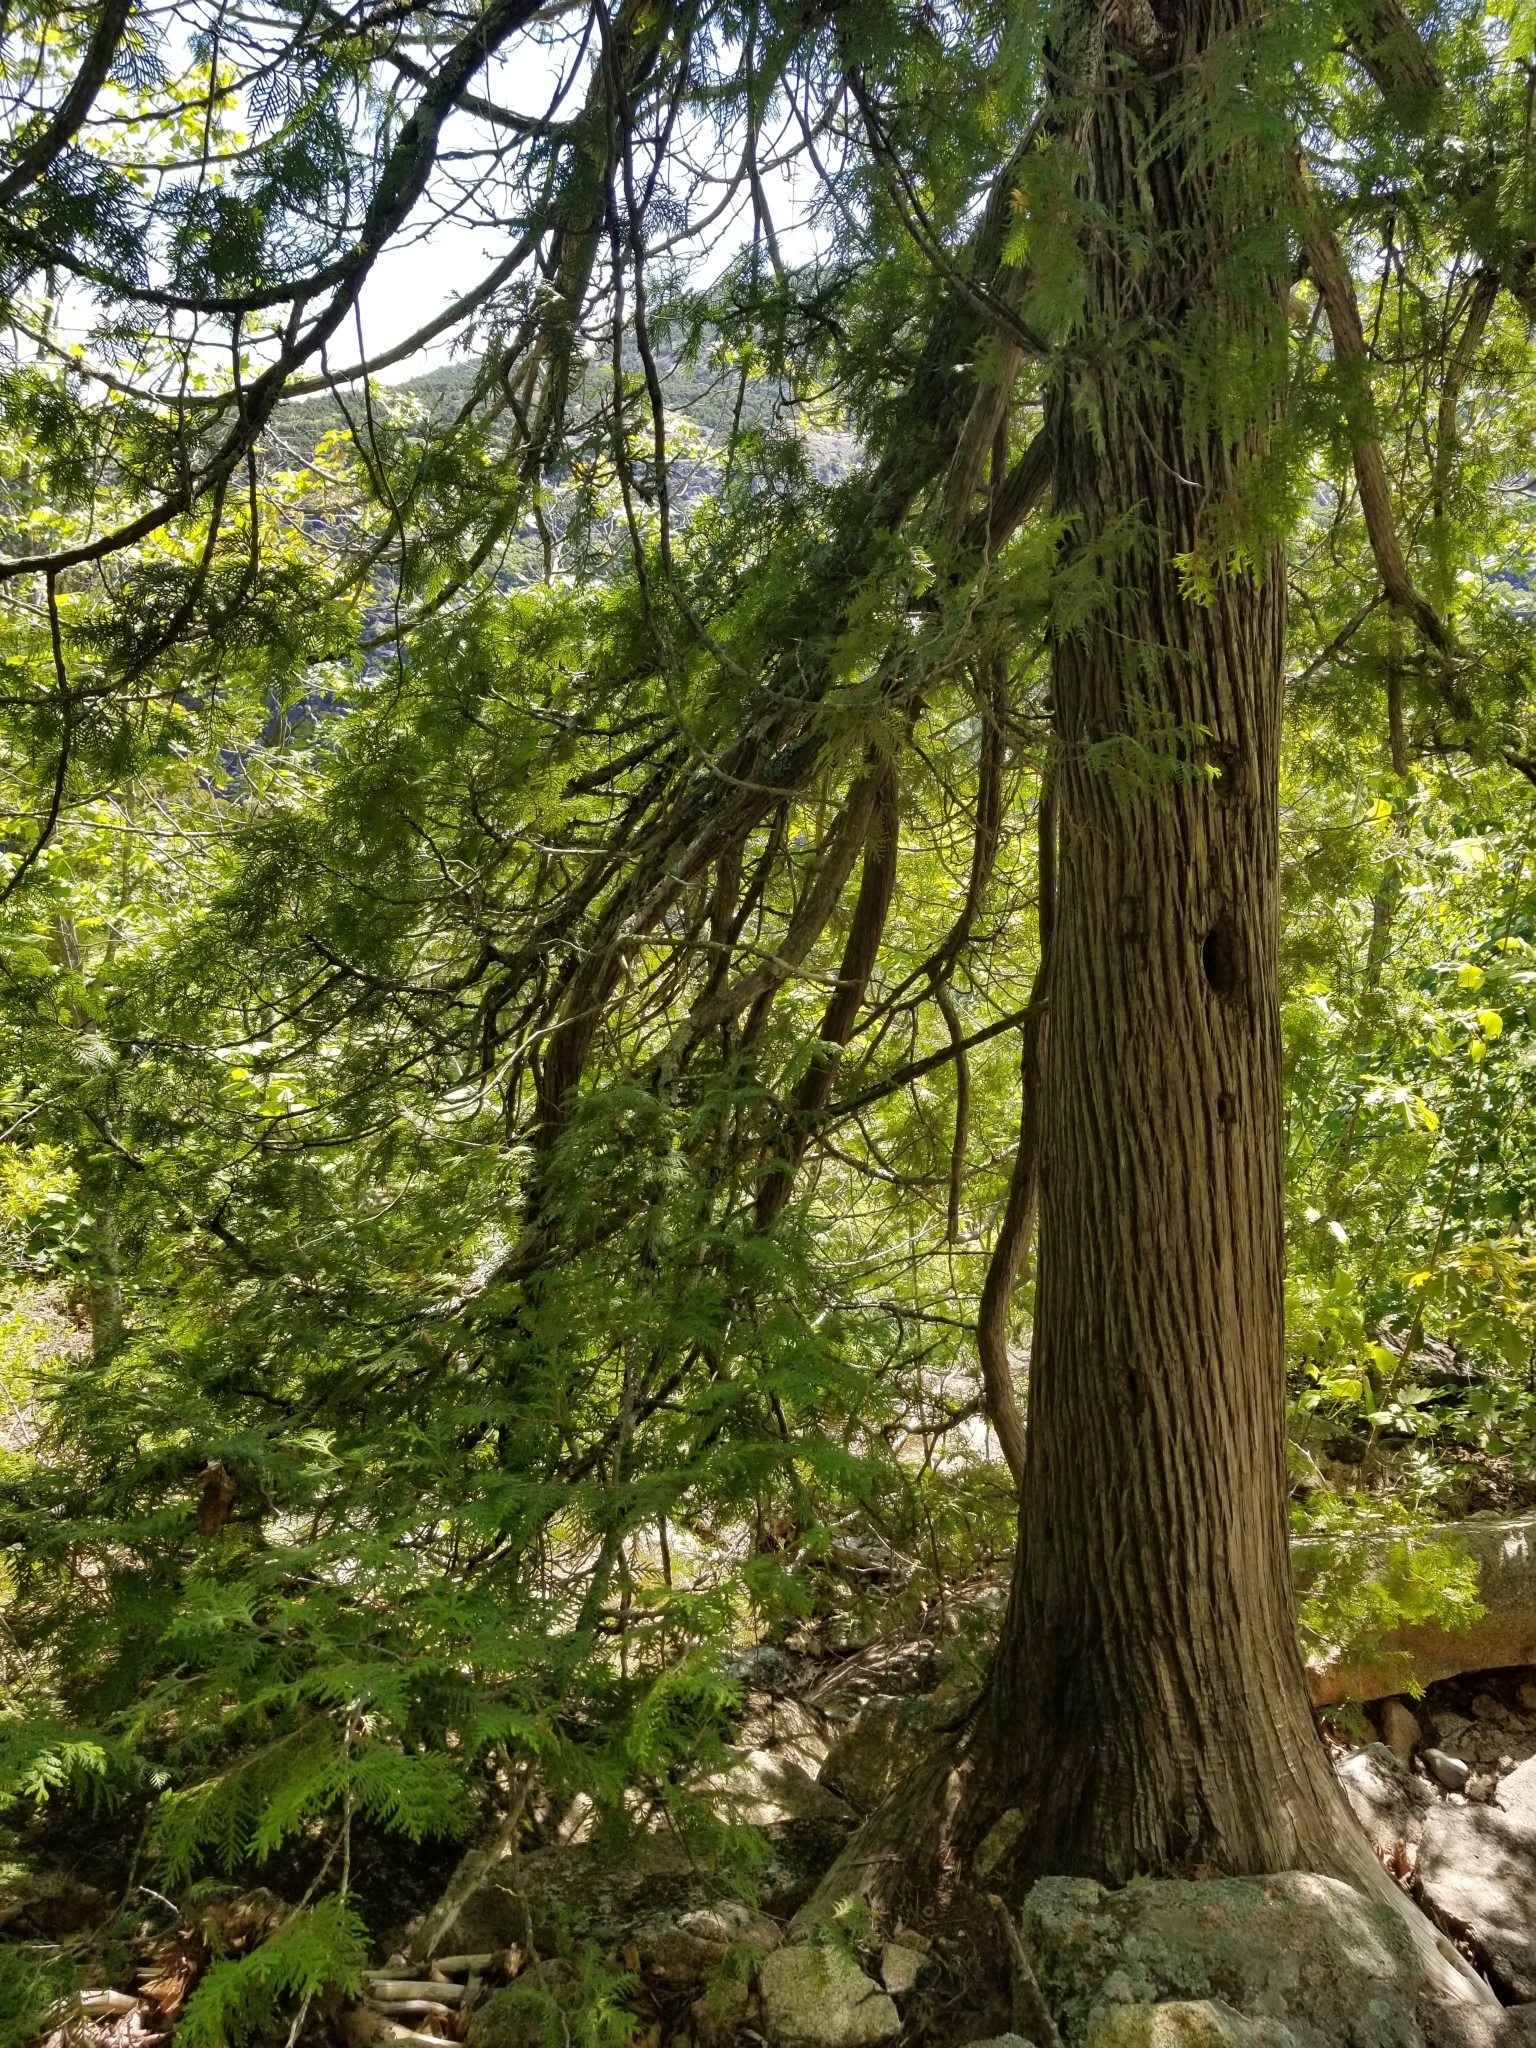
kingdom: Plantae
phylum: Tracheophyta
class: Pinopsida
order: Pinales
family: Cupressaceae
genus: Thuja
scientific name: Thuja occidentalis
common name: Northern white-cedar
